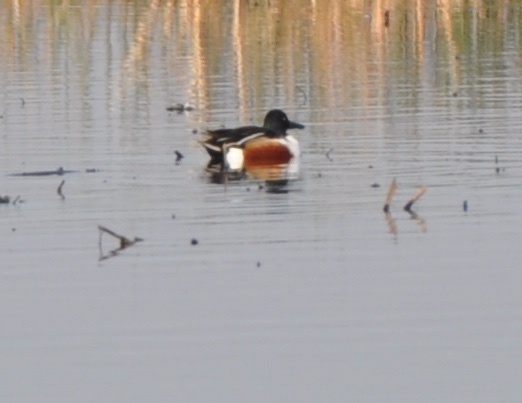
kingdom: Animalia
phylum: Chordata
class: Aves
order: Anseriformes
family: Anatidae
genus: Spatula
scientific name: Spatula clypeata
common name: Northern shoveler
